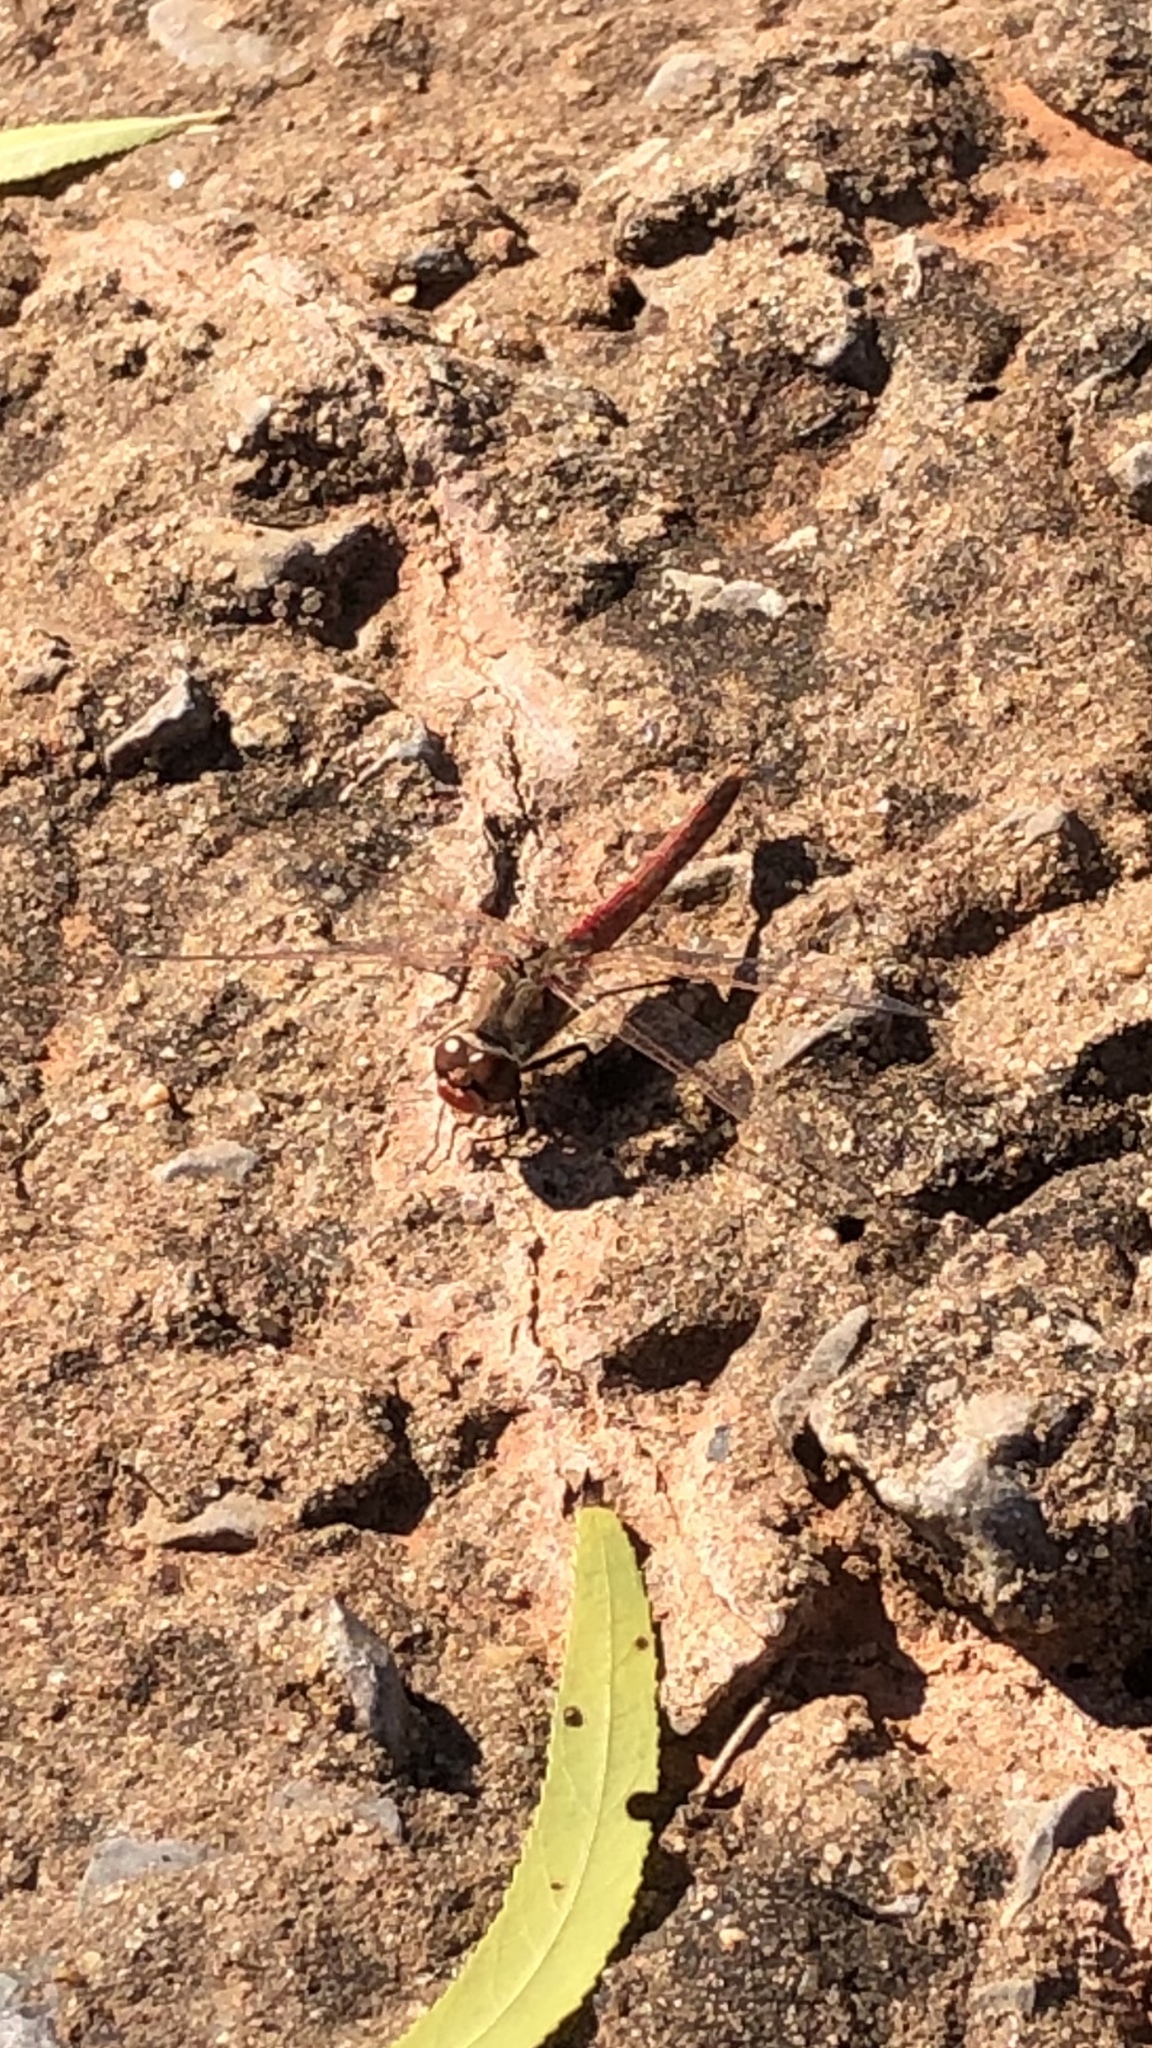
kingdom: Animalia
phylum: Arthropoda
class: Insecta
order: Odonata
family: Libellulidae
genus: Sympetrum
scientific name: Sympetrum corruptum
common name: Variegated meadowhawk
